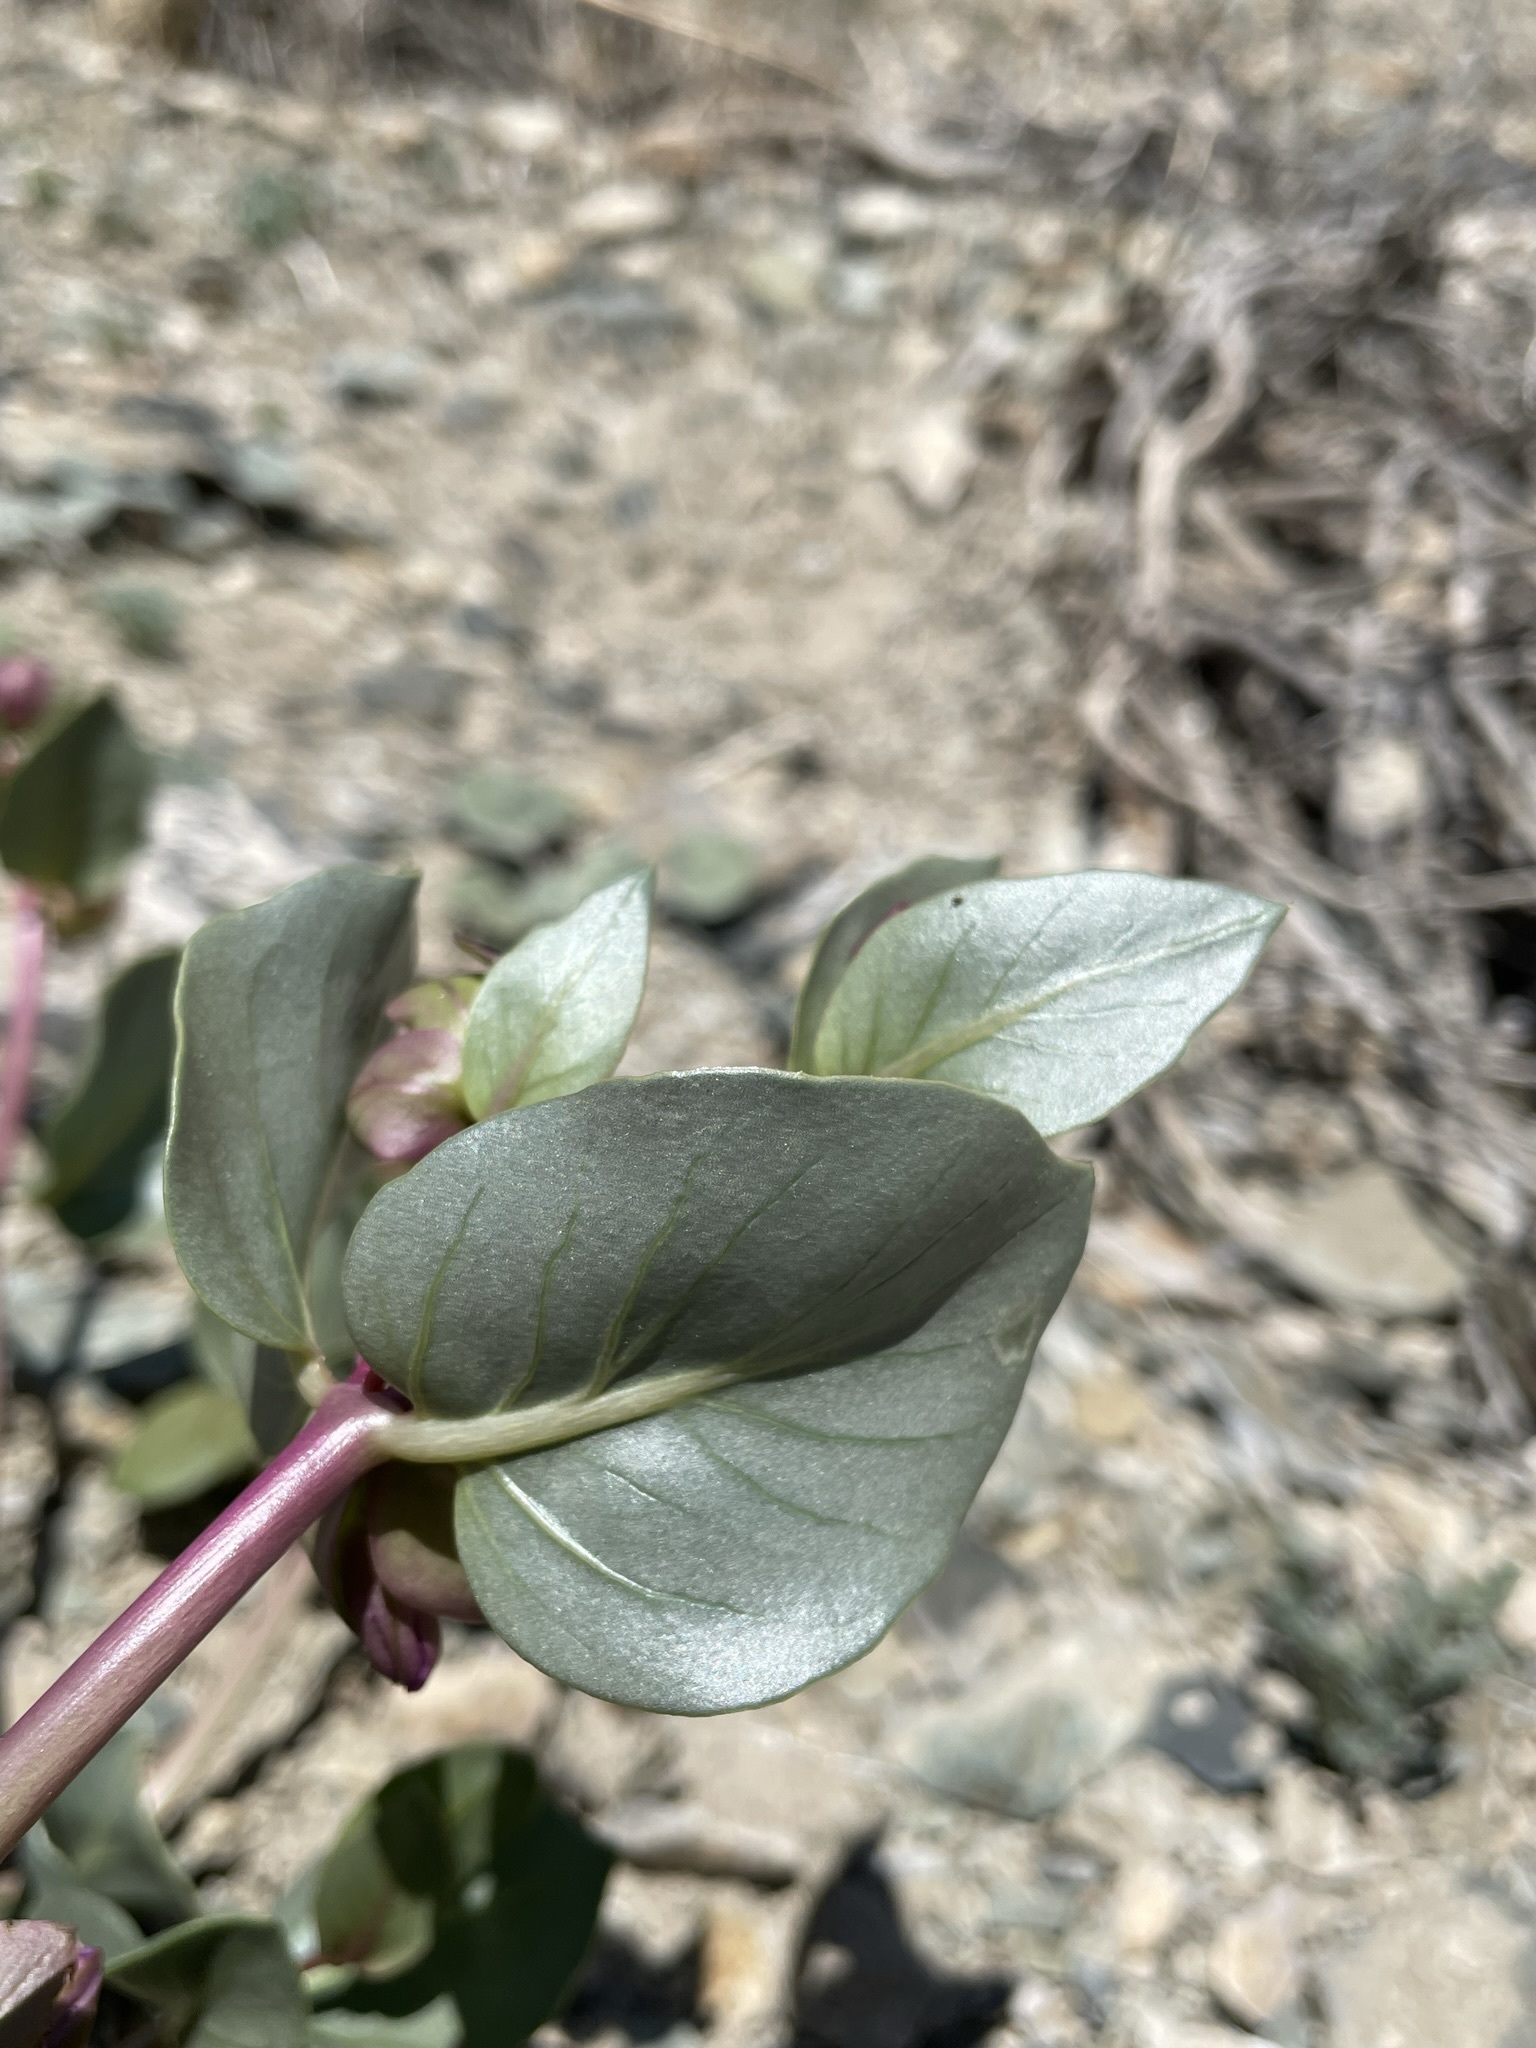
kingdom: Plantae
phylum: Tracheophyta
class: Magnoliopsida
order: Caryophyllales
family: Nyctaginaceae
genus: Mirabilis
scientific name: Mirabilis alipes
